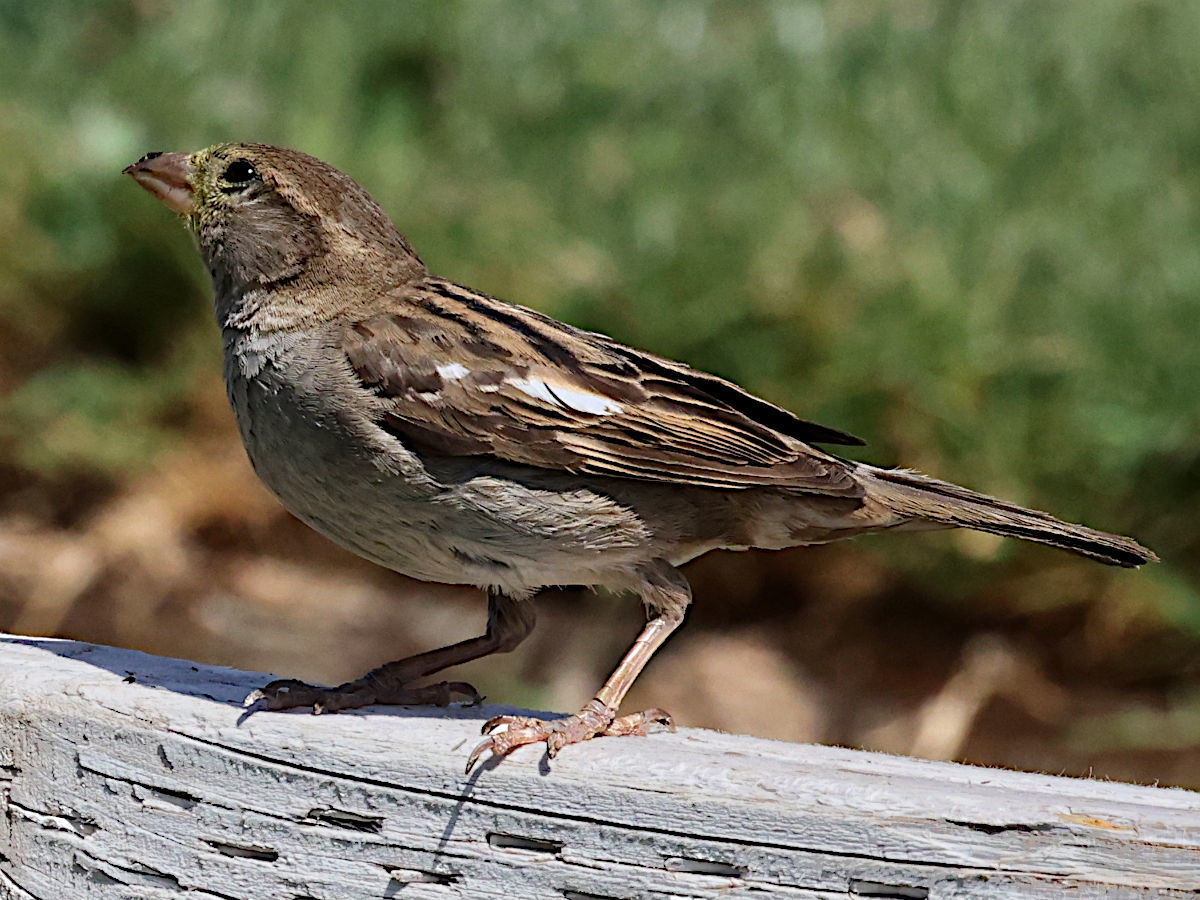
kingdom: Animalia
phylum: Chordata
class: Aves
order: Passeriformes
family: Passeridae
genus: Passer
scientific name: Passer domesticus
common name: House sparrow
